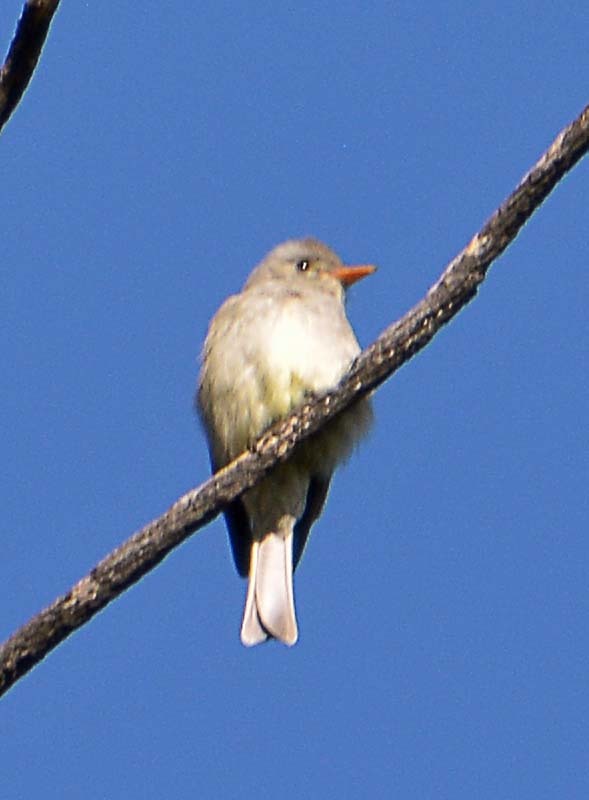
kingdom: Animalia
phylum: Chordata
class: Aves
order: Passeriformes
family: Tyrannidae
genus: Contopus
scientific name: Contopus pertinax
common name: Greater pewee
